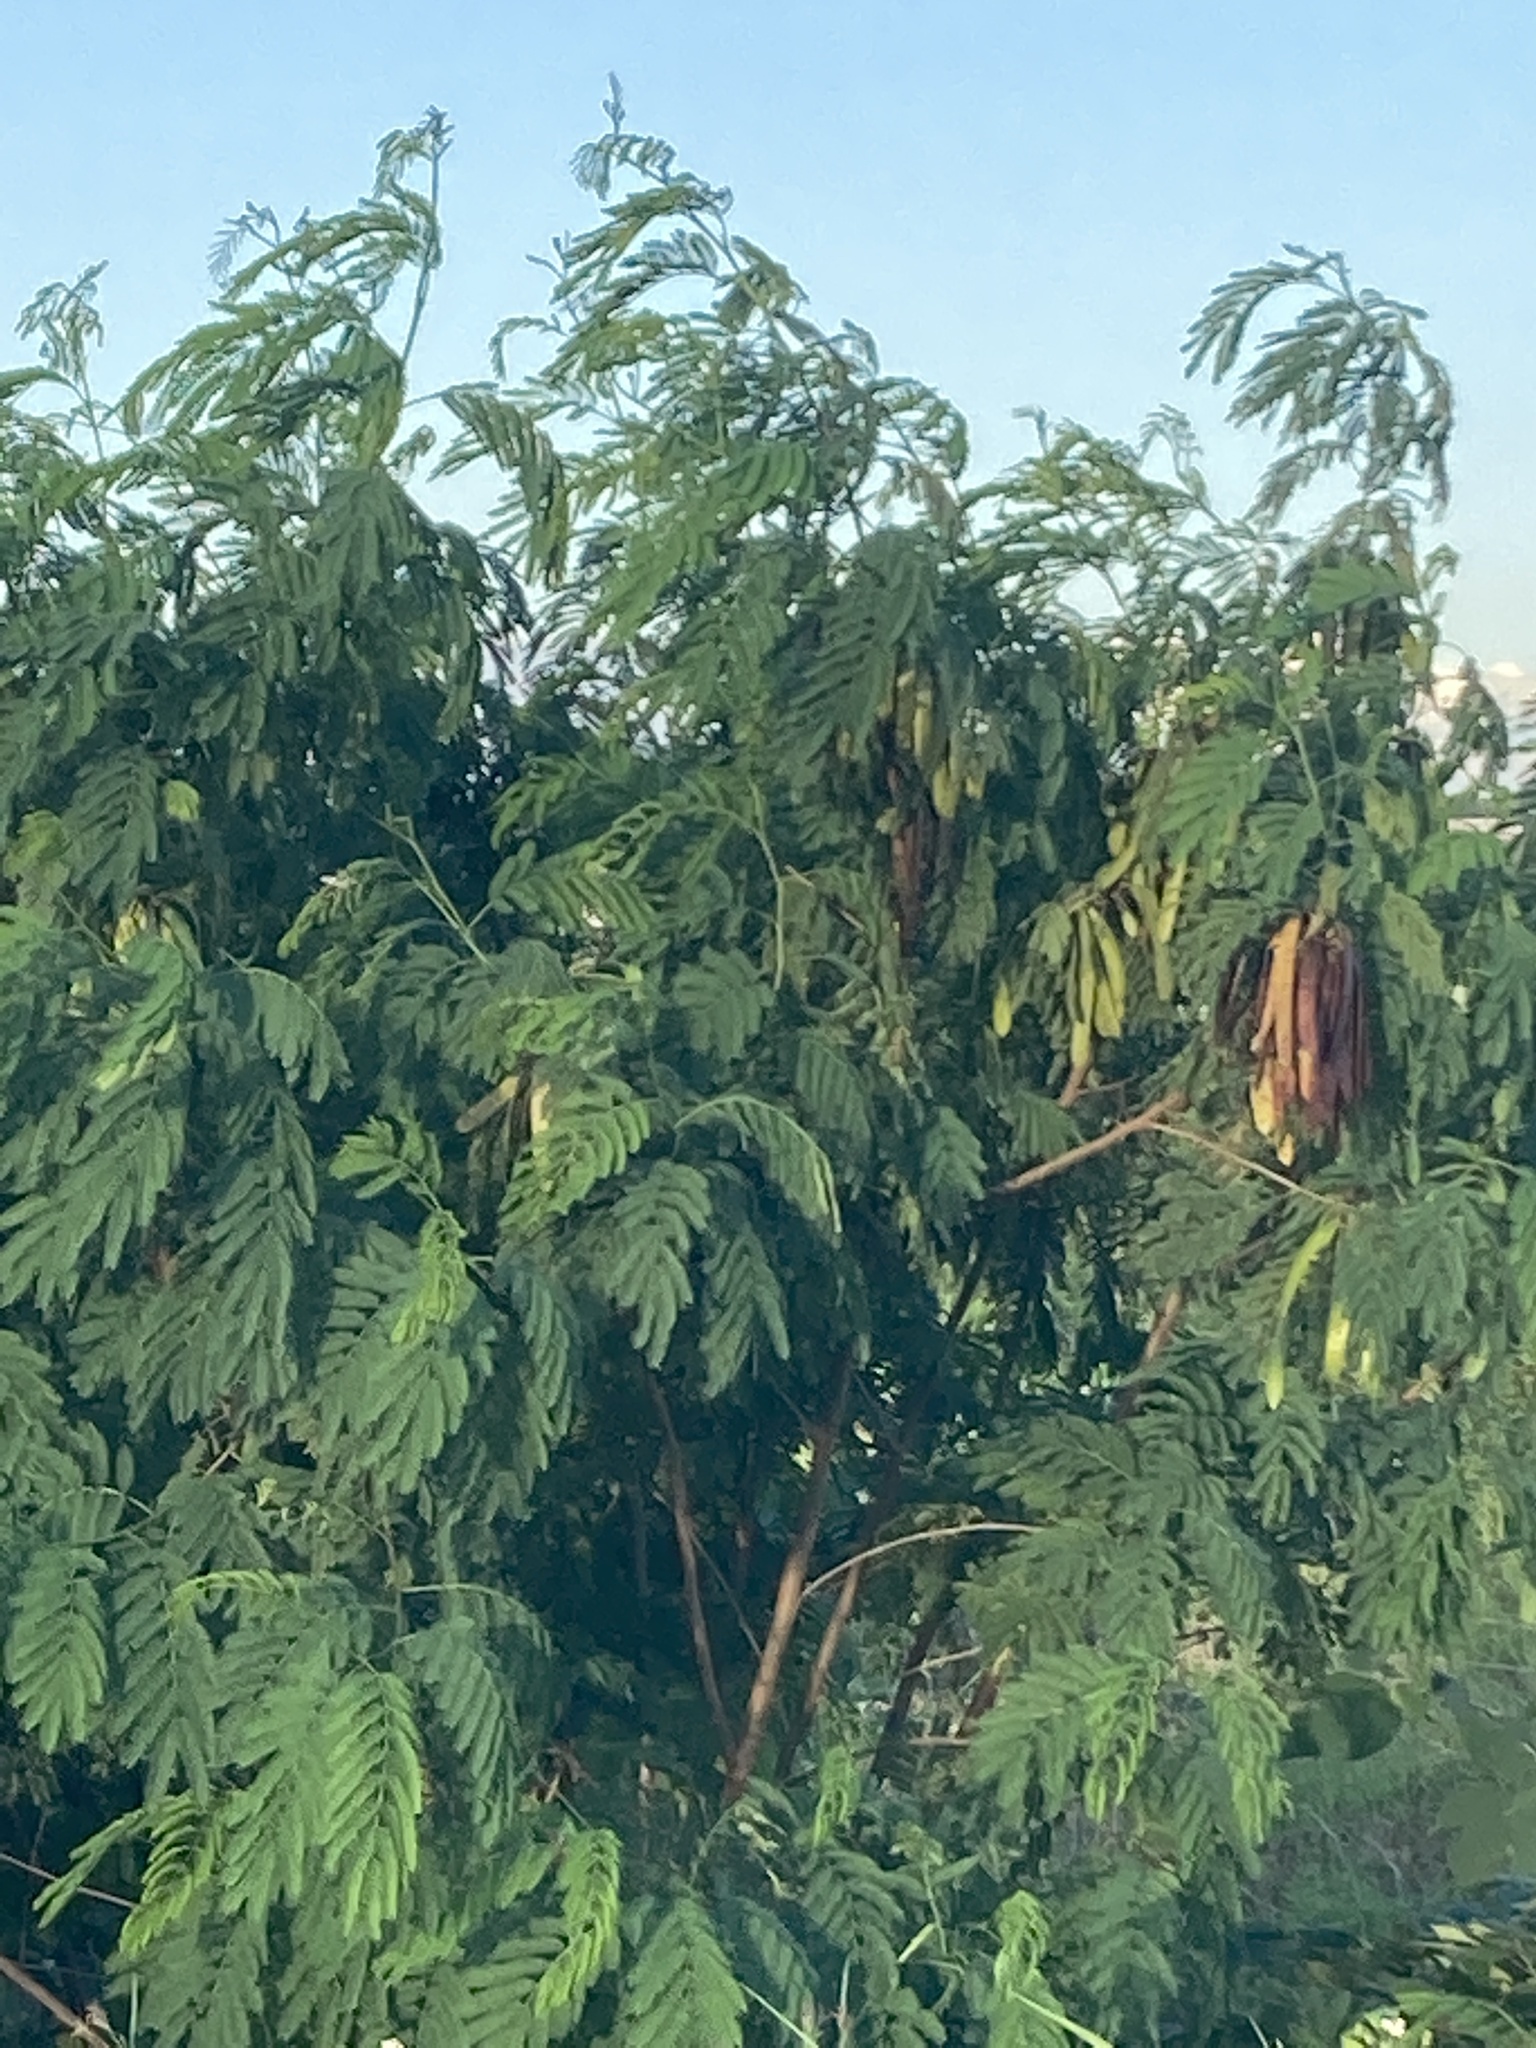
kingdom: Plantae
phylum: Tracheophyta
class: Magnoliopsida
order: Fabales
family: Fabaceae
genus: Leucaena
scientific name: Leucaena leucocephala
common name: White leadtree
